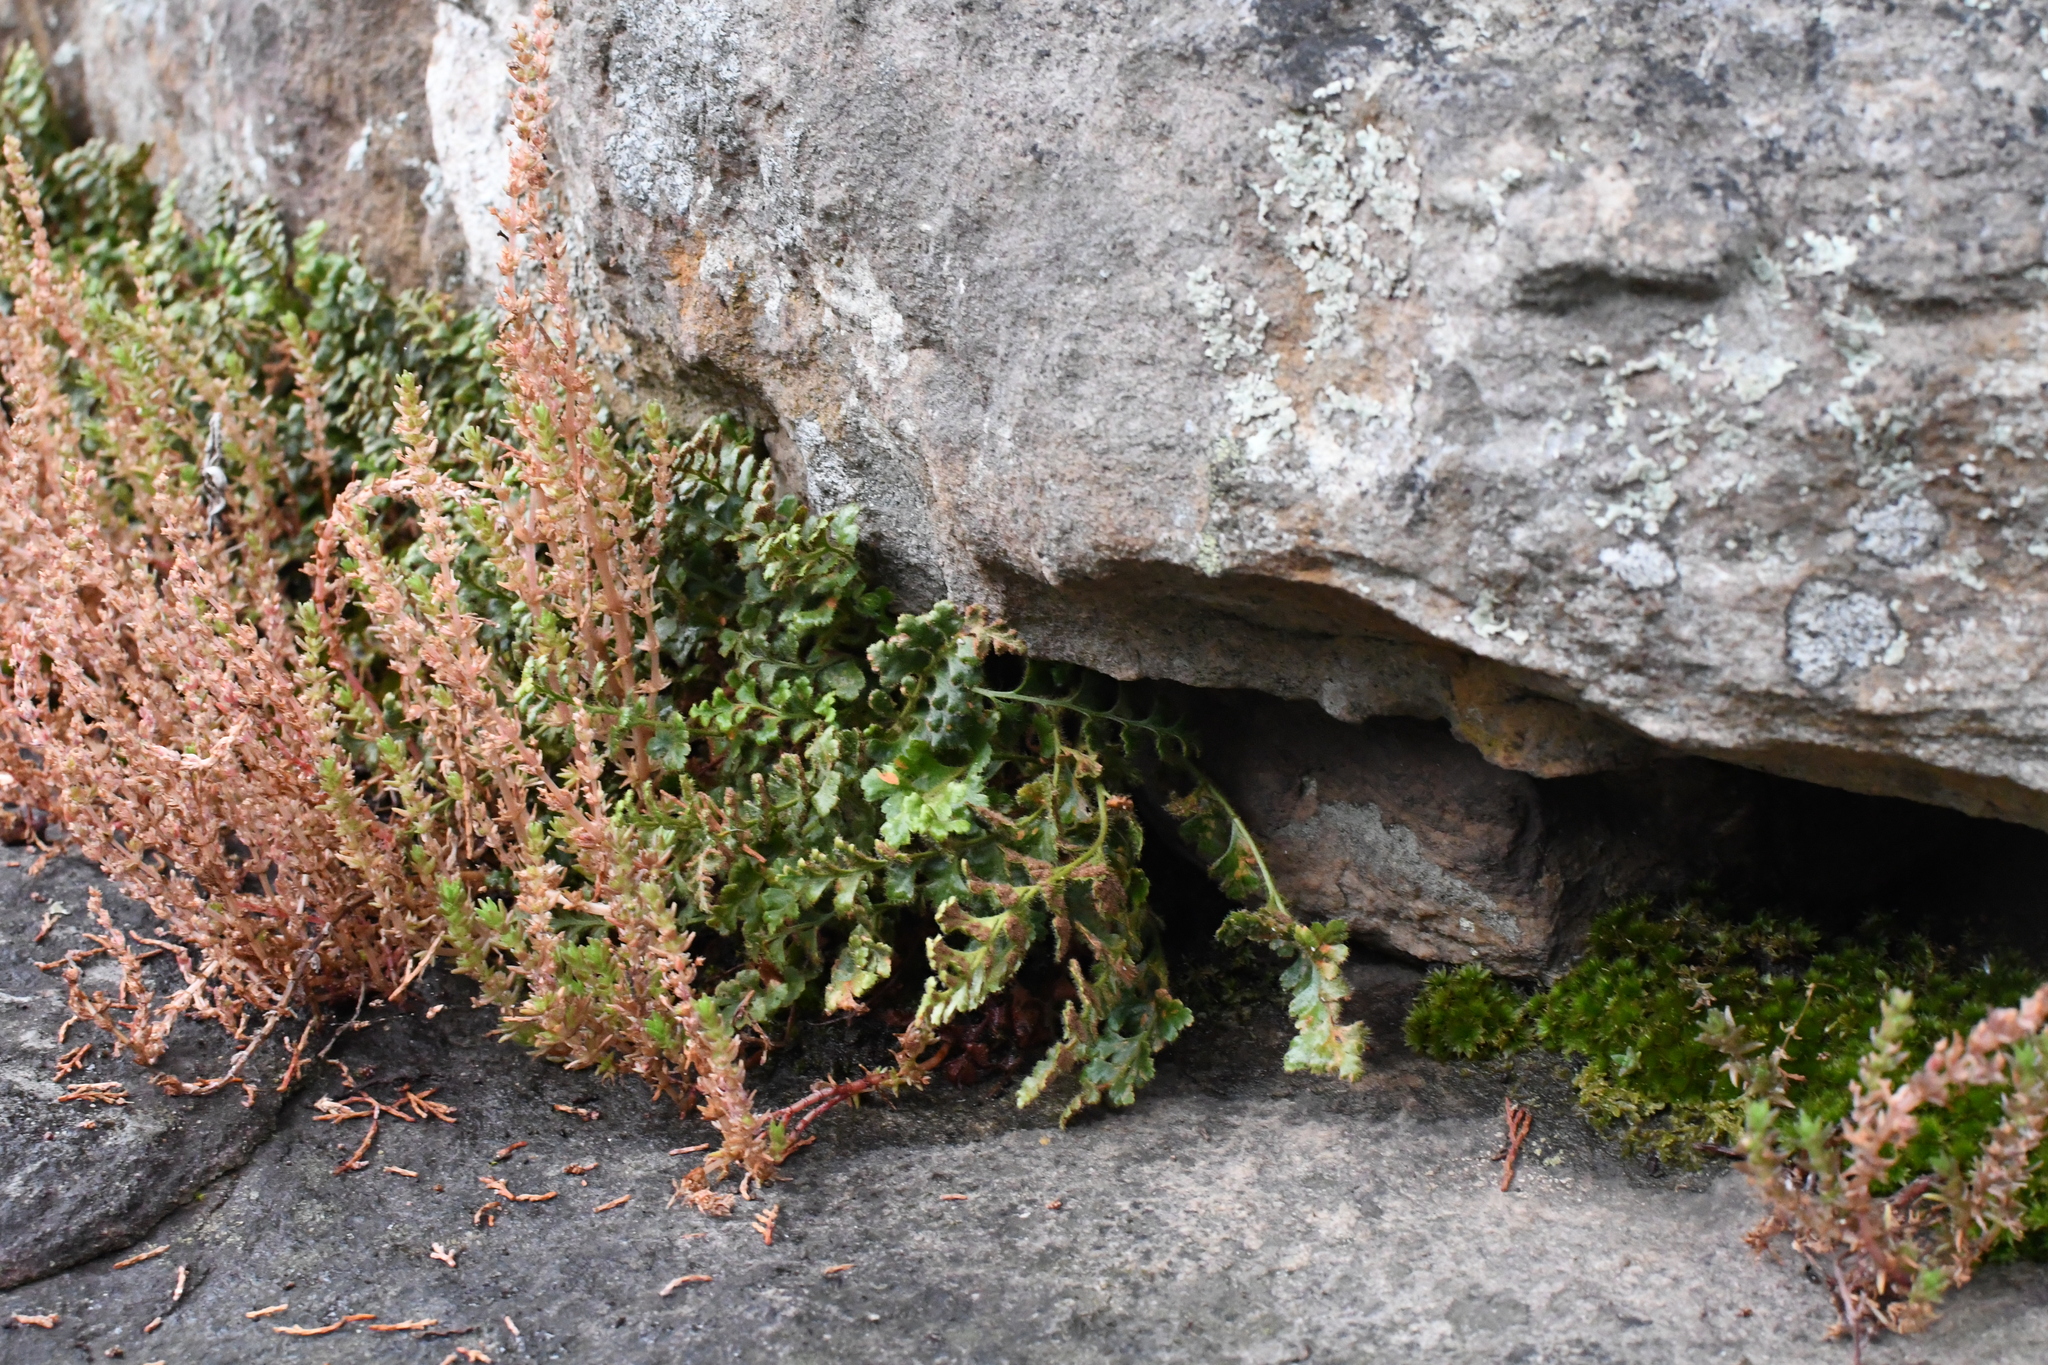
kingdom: Plantae
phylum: Tracheophyta
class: Polypodiopsida
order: Polypodiales
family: Aspleniaceae
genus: Asplenium
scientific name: Asplenium subglandulosum
